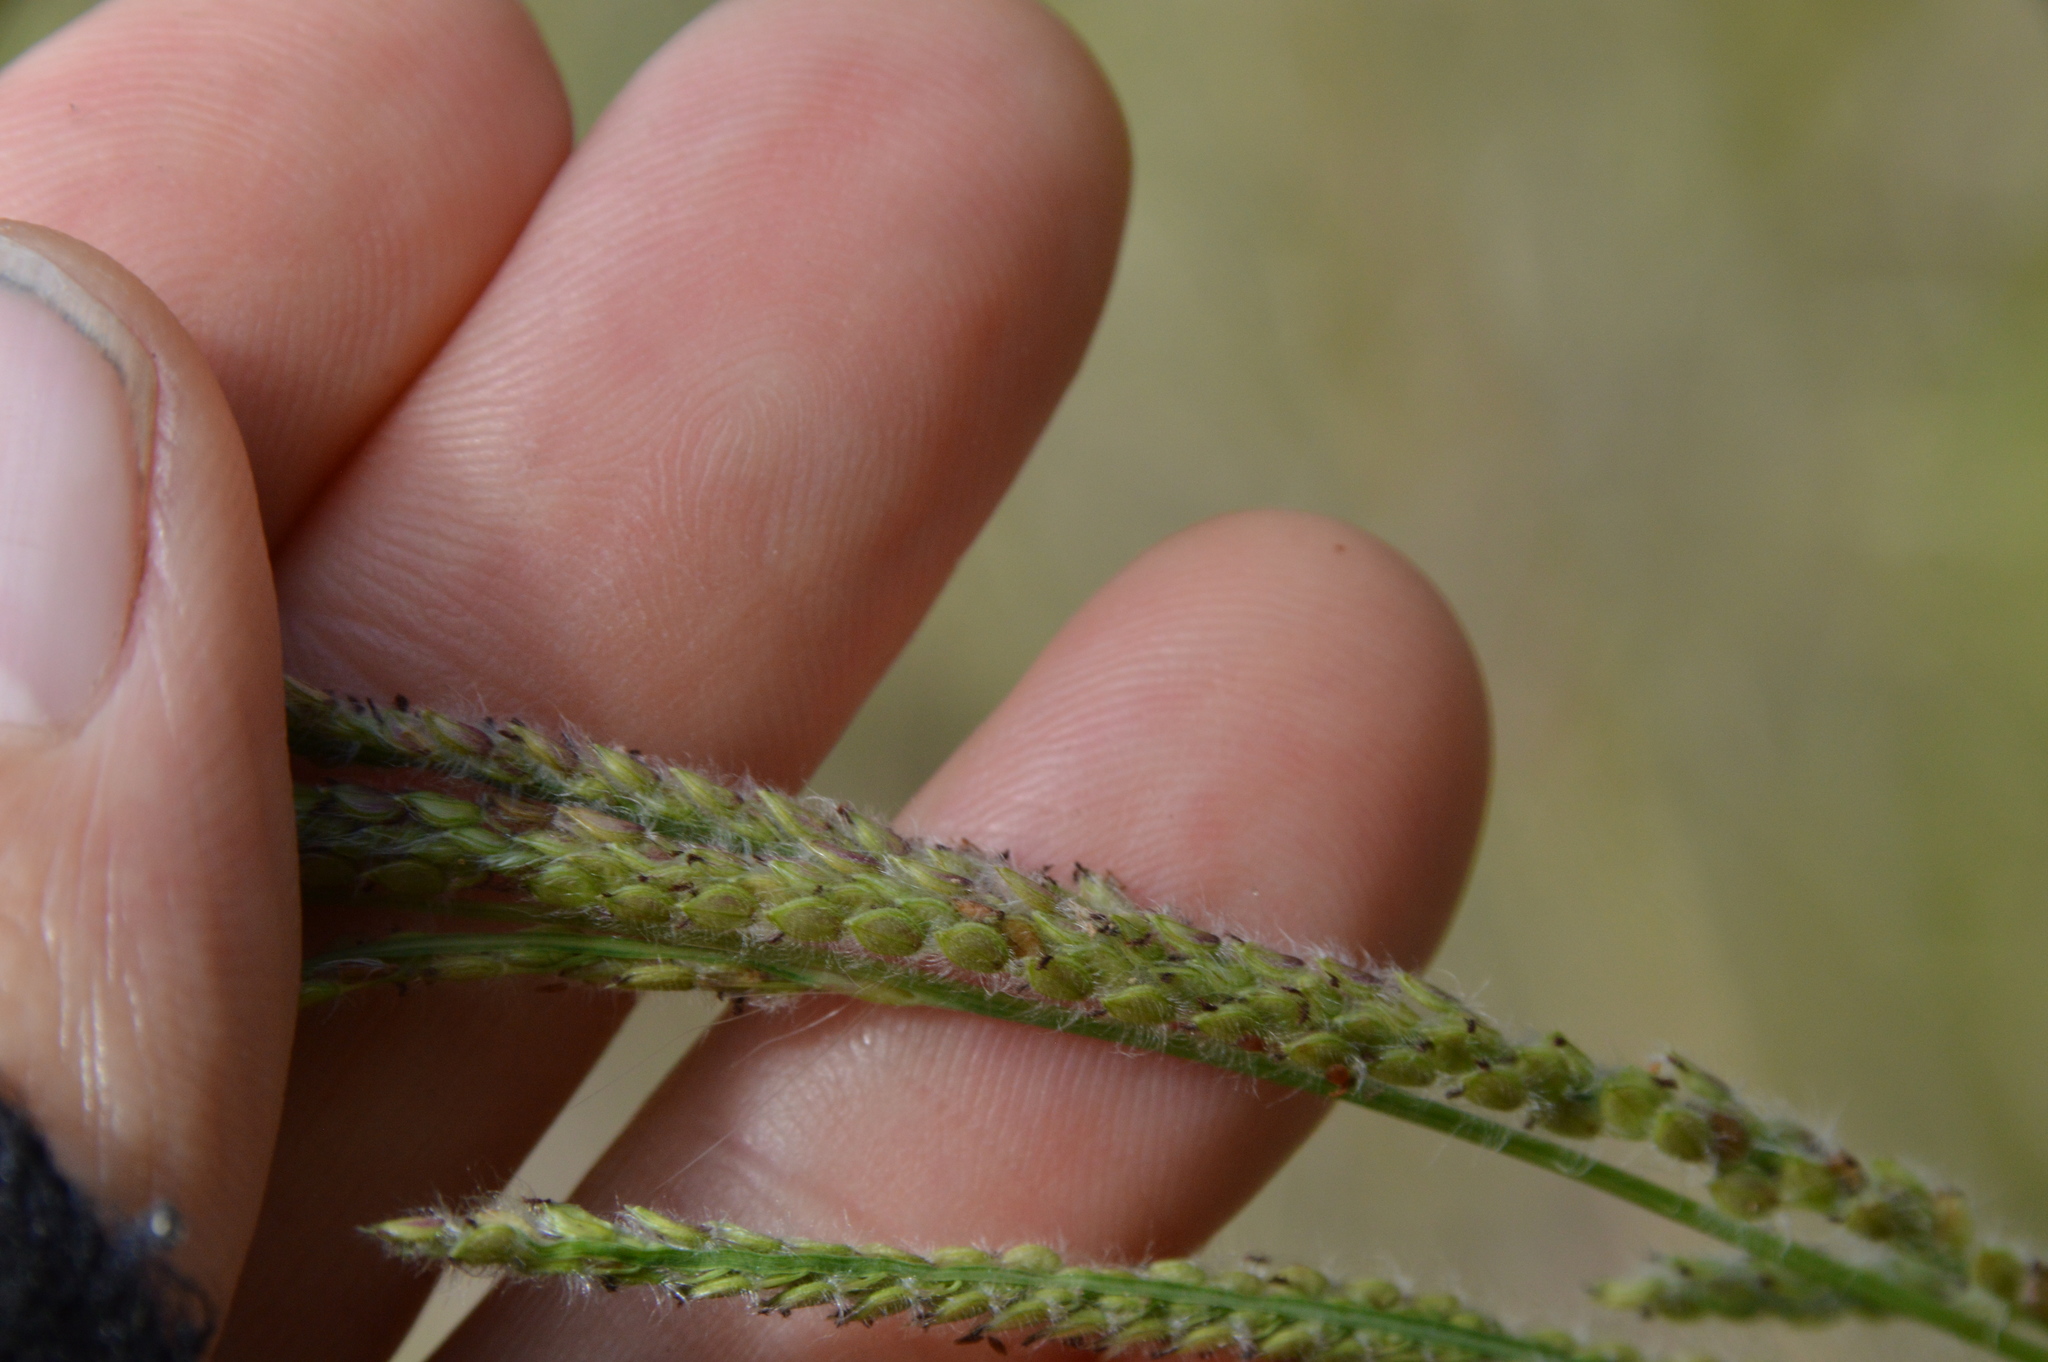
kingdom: Plantae
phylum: Tracheophyta
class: Liliopsida
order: Poales
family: Poaceae
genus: Paspalum
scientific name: Paspalum urvillei
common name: Vasey's grass
